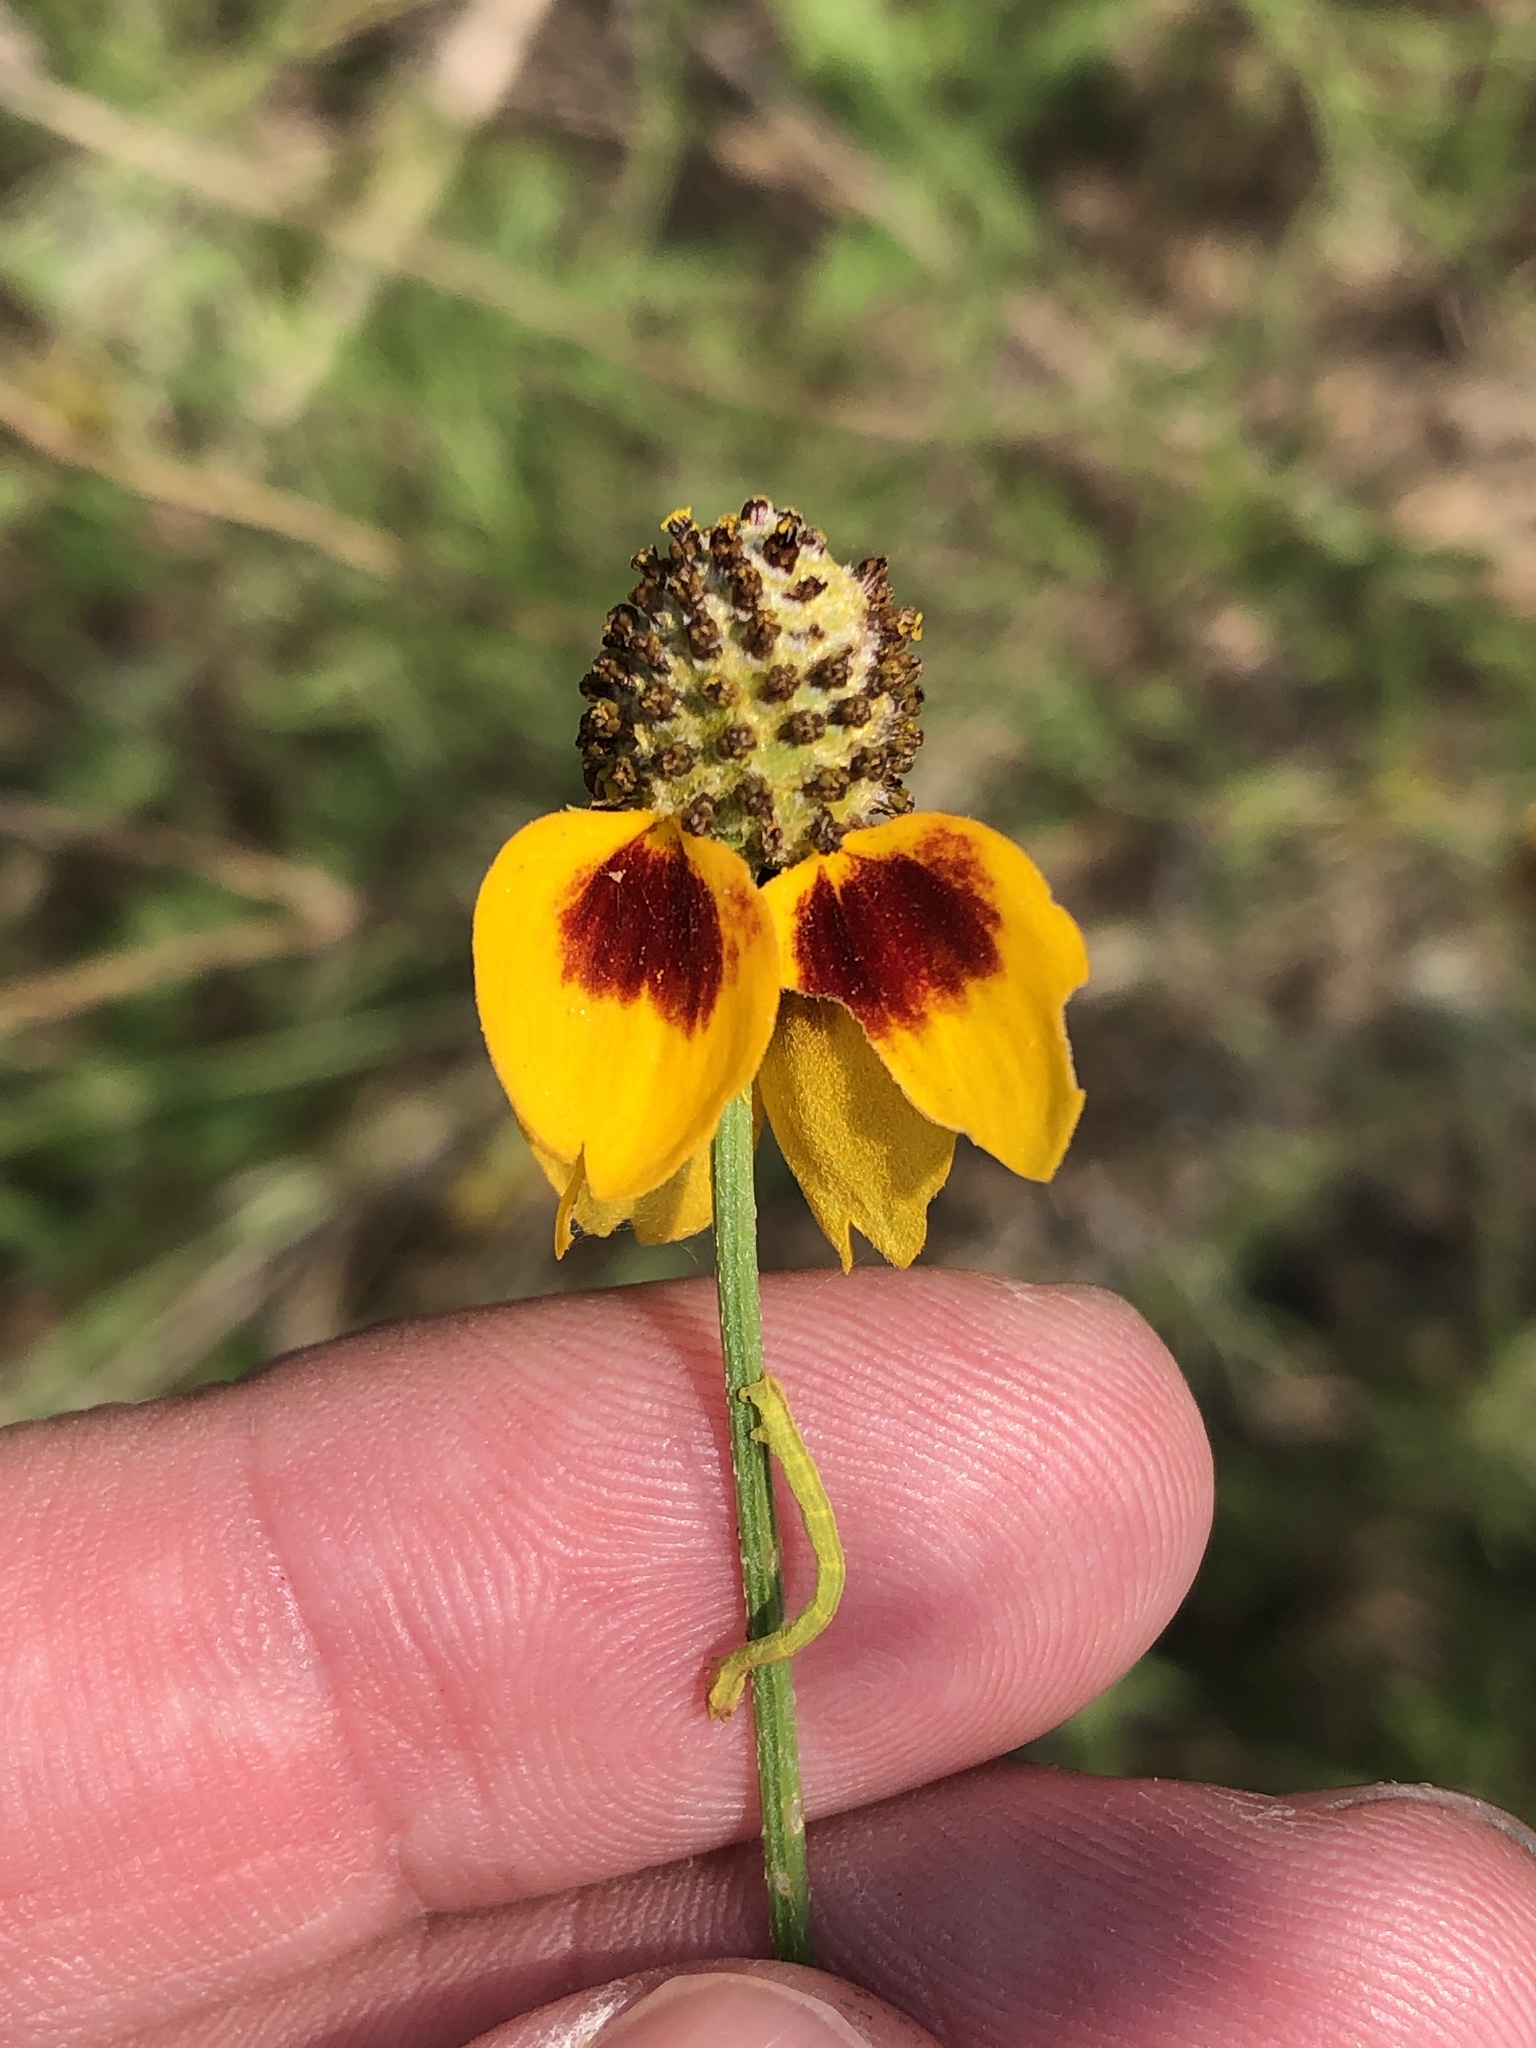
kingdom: Plantae
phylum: Tracheophyta
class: Magnoliopsida
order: Asterales
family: Asteraceae
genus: Ratibida
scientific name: Ratibida columnifera
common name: Prairie coneflower
